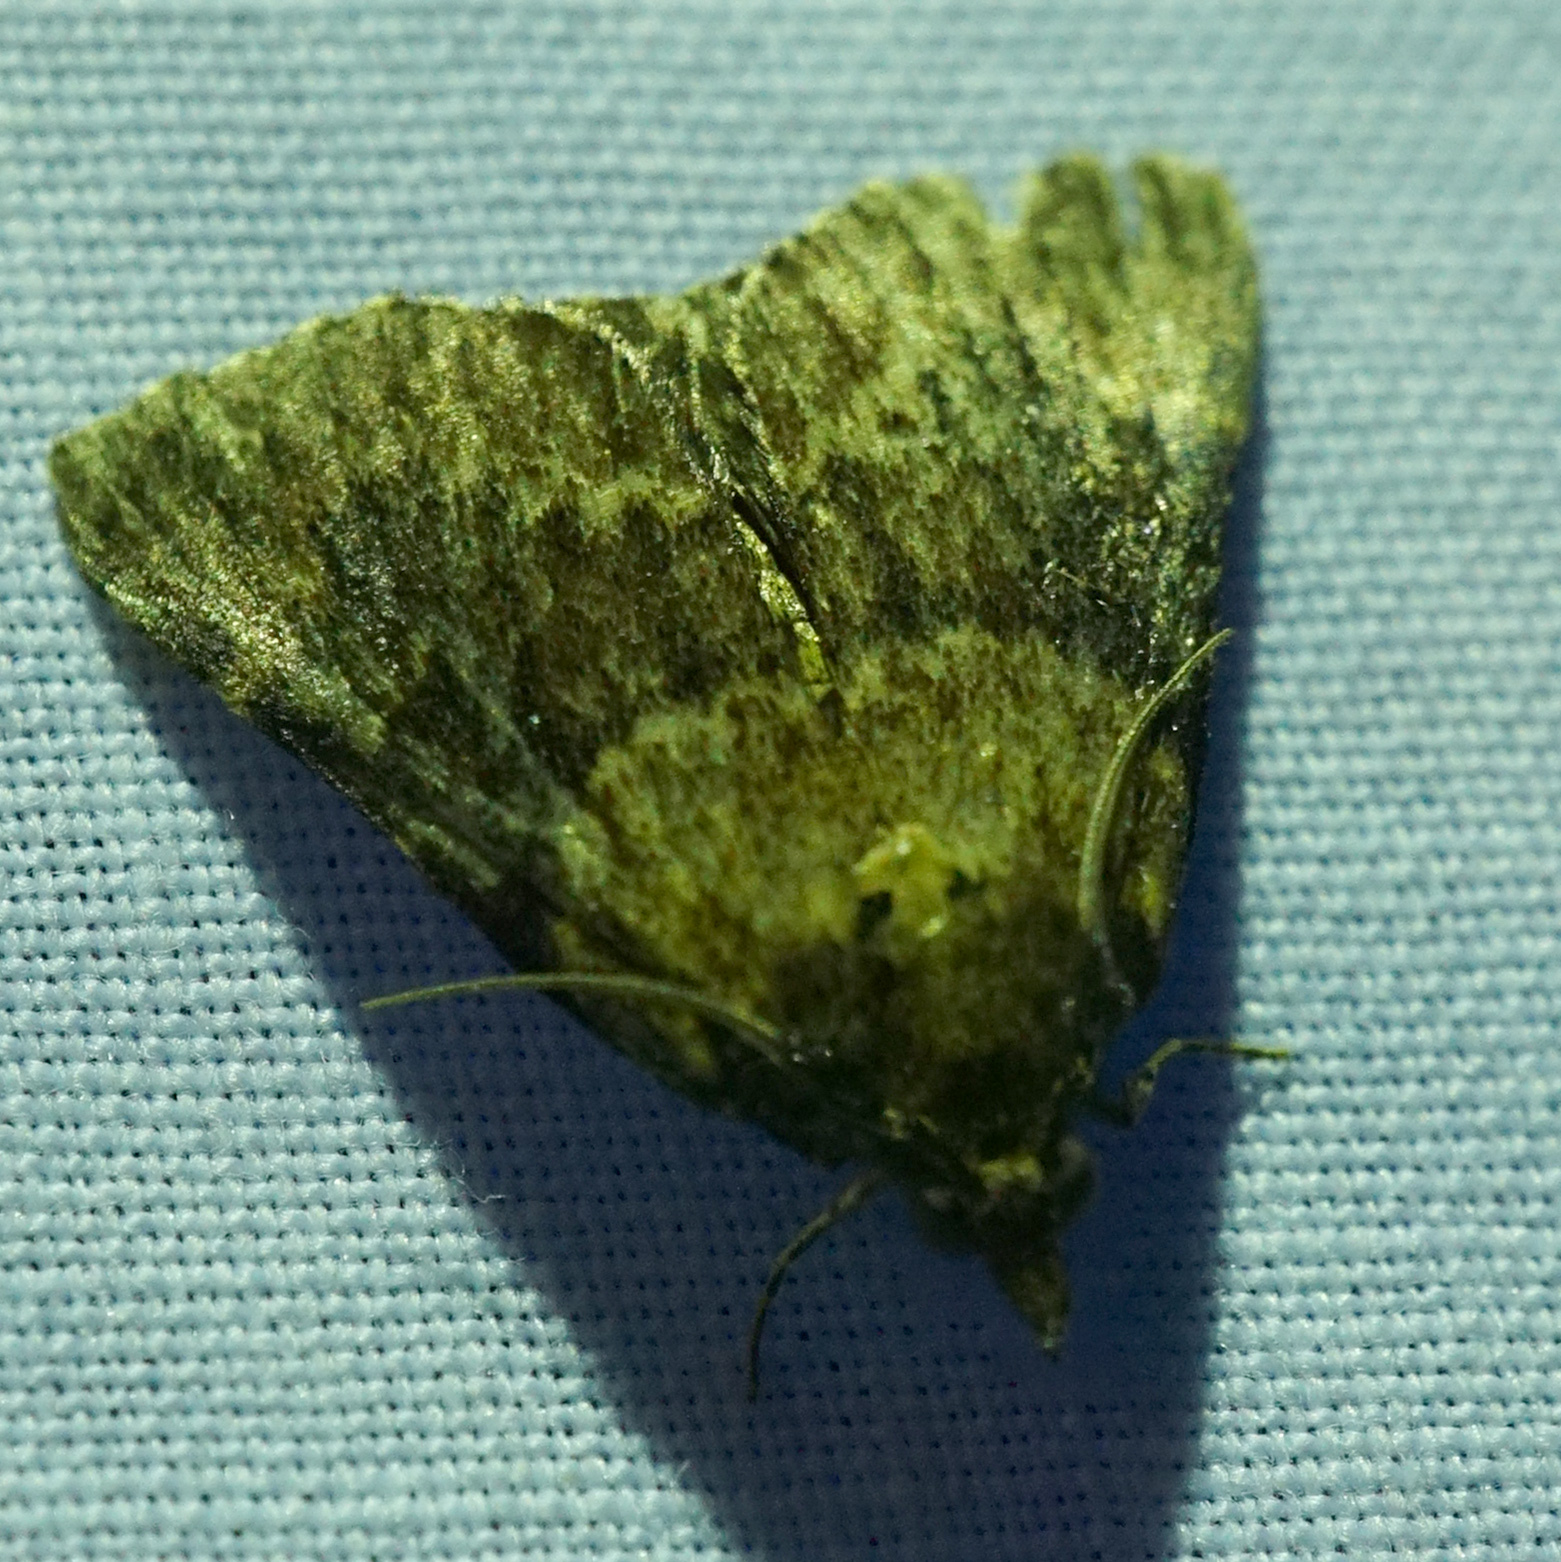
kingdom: Animalia
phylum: Arthropoda
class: Insecta
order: Lepidoptera
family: Pyralidae
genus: Omphalocera
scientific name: Omphalocera munroei
